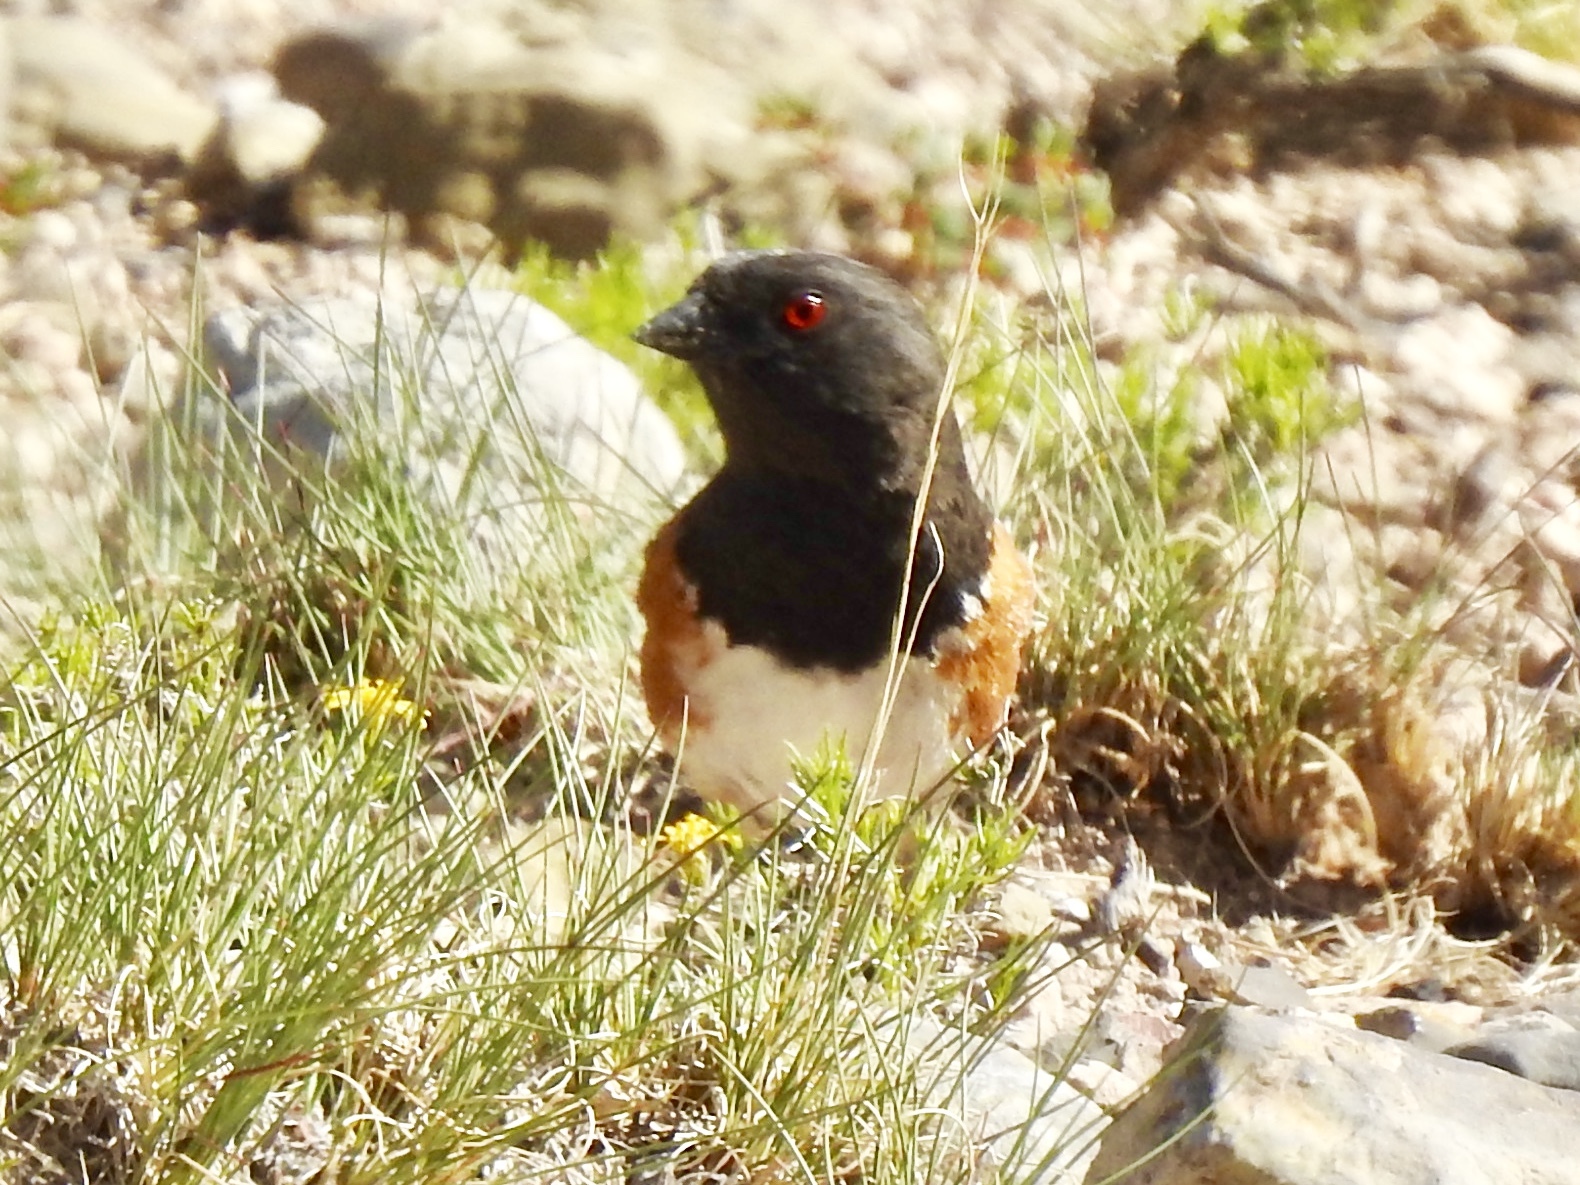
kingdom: Animalia
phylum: Chordata
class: Aves
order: Passeriformes
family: Passerellidae
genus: Pipilo
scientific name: Pipilo maculatus
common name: Spotted towhee
